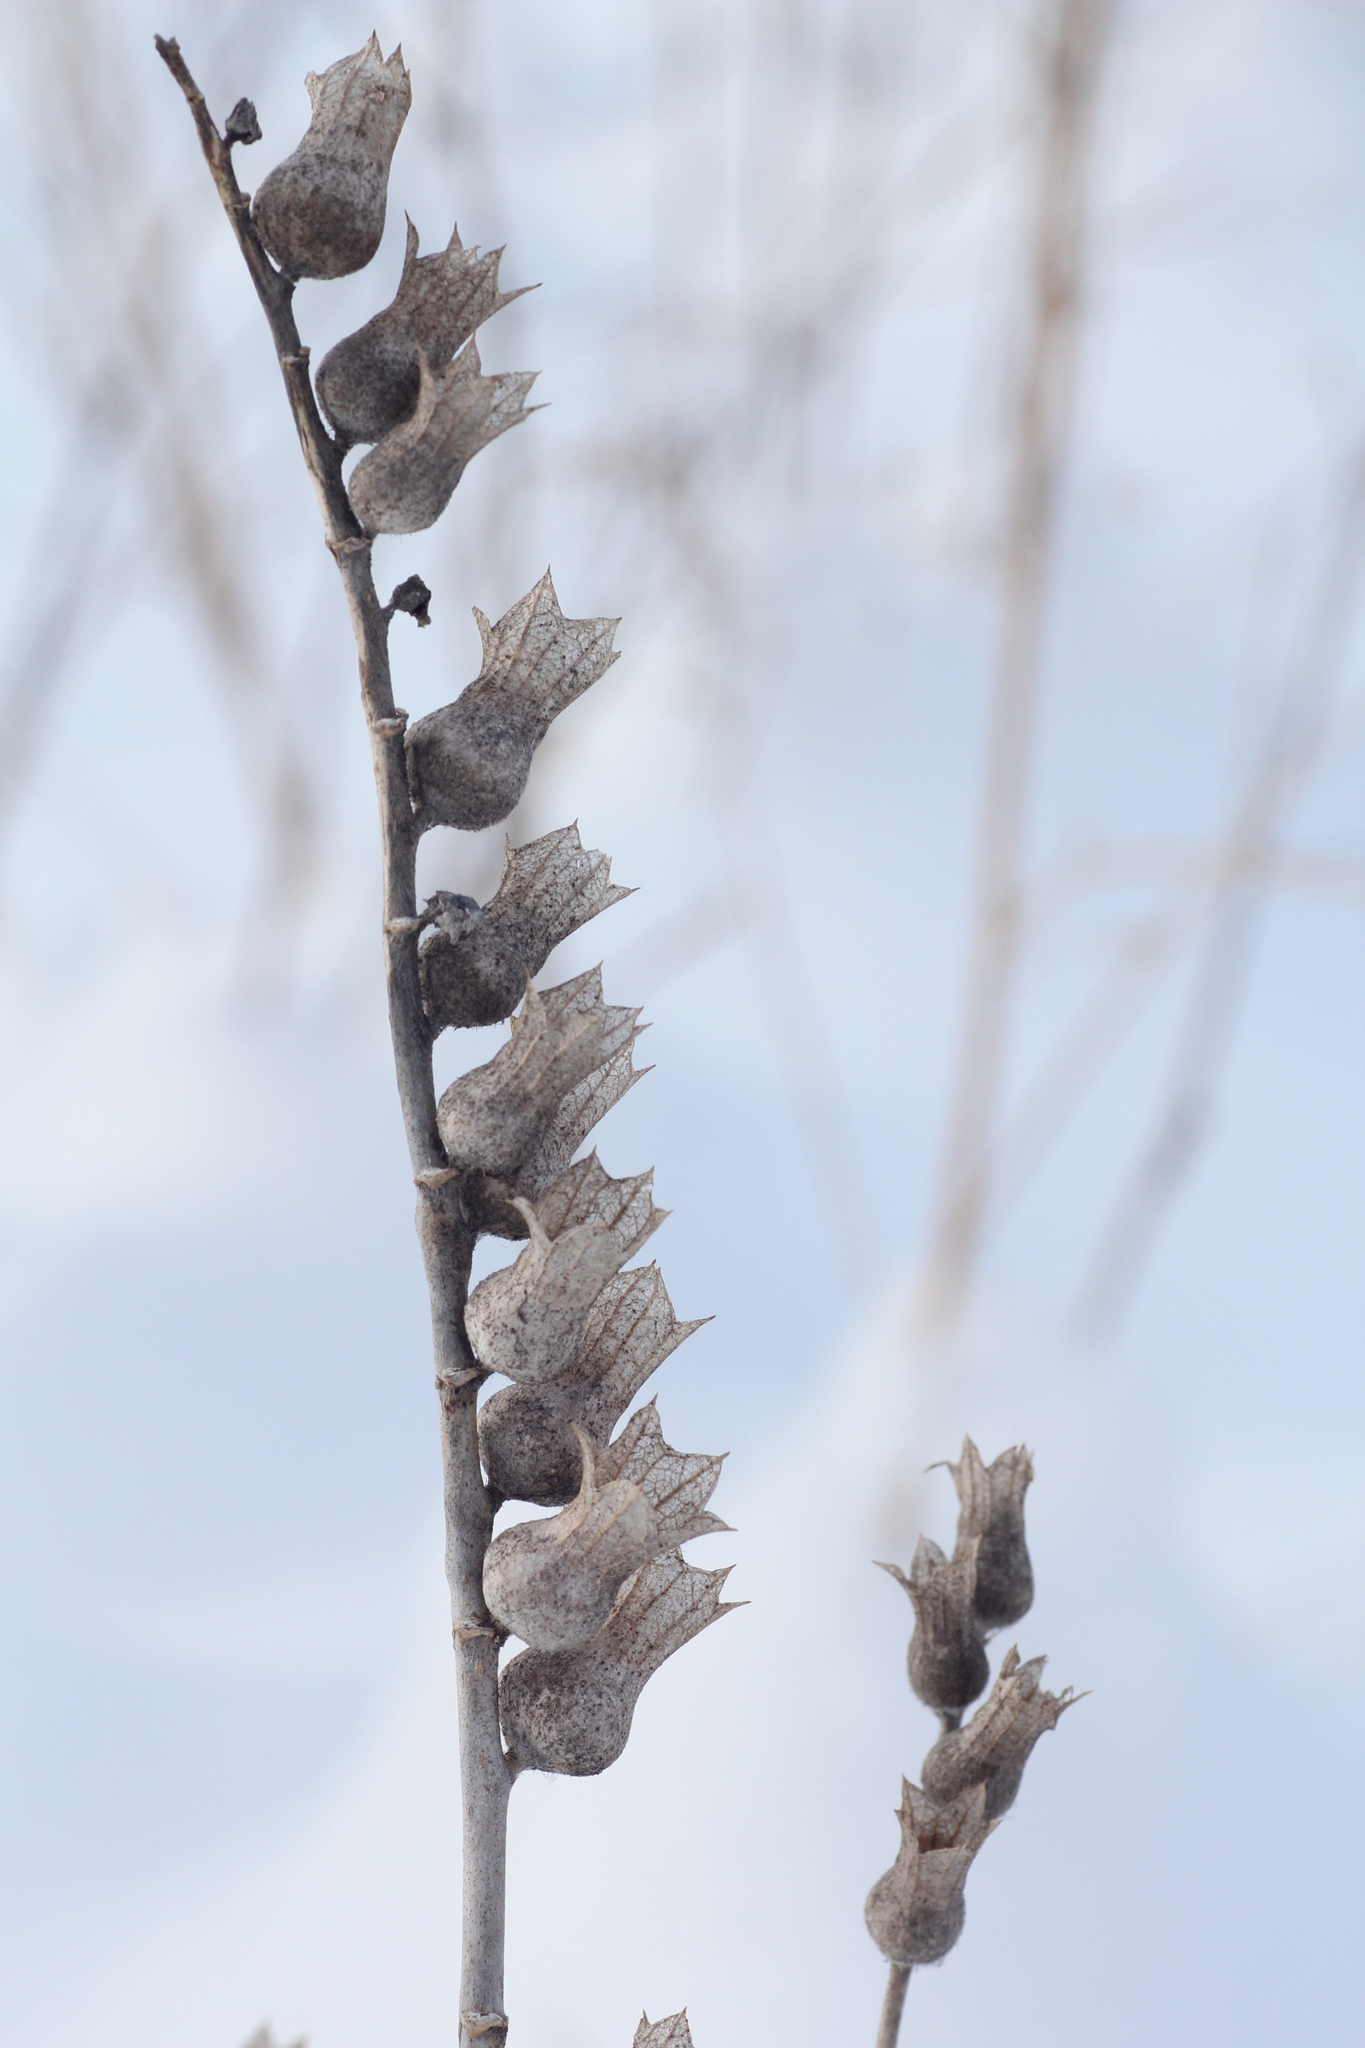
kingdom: Plantae
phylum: Tracheophyta
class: Magnoliopsida
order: Solanales
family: Solanaceae
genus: Hyoscyamus
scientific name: Hyoscyamus niger
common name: Henbane
